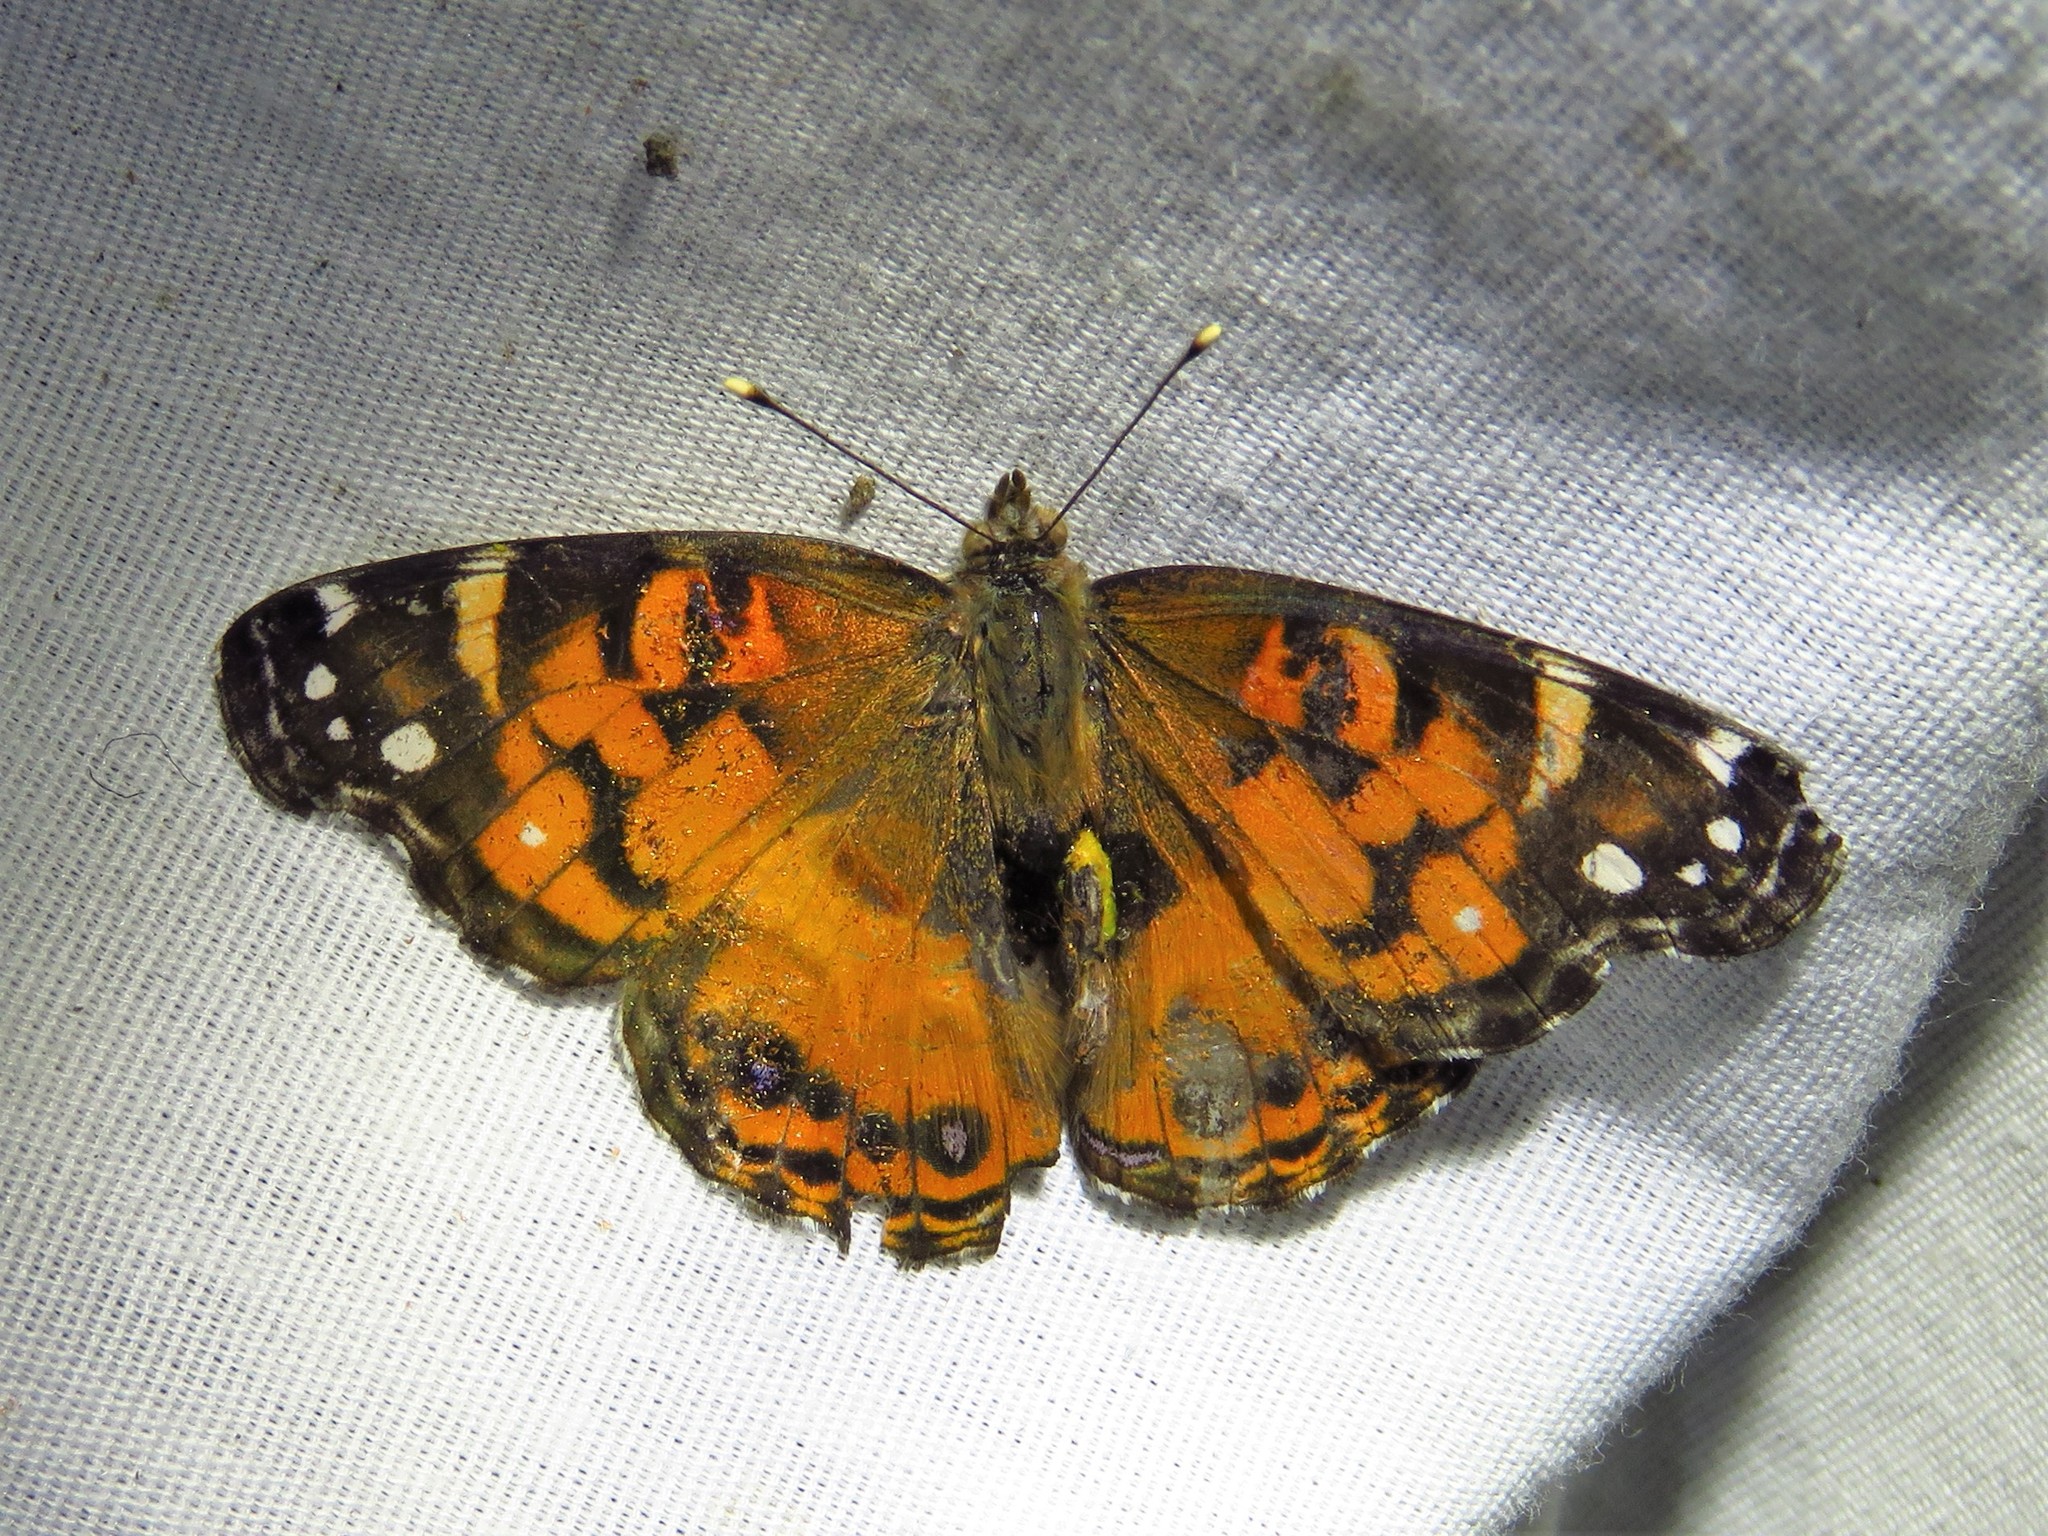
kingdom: Animalia
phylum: Arthropoda
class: Insecta
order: Lepidoptera
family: Nymphalidae
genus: Vanessa
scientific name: Vanessa virginiensis
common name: American lady
